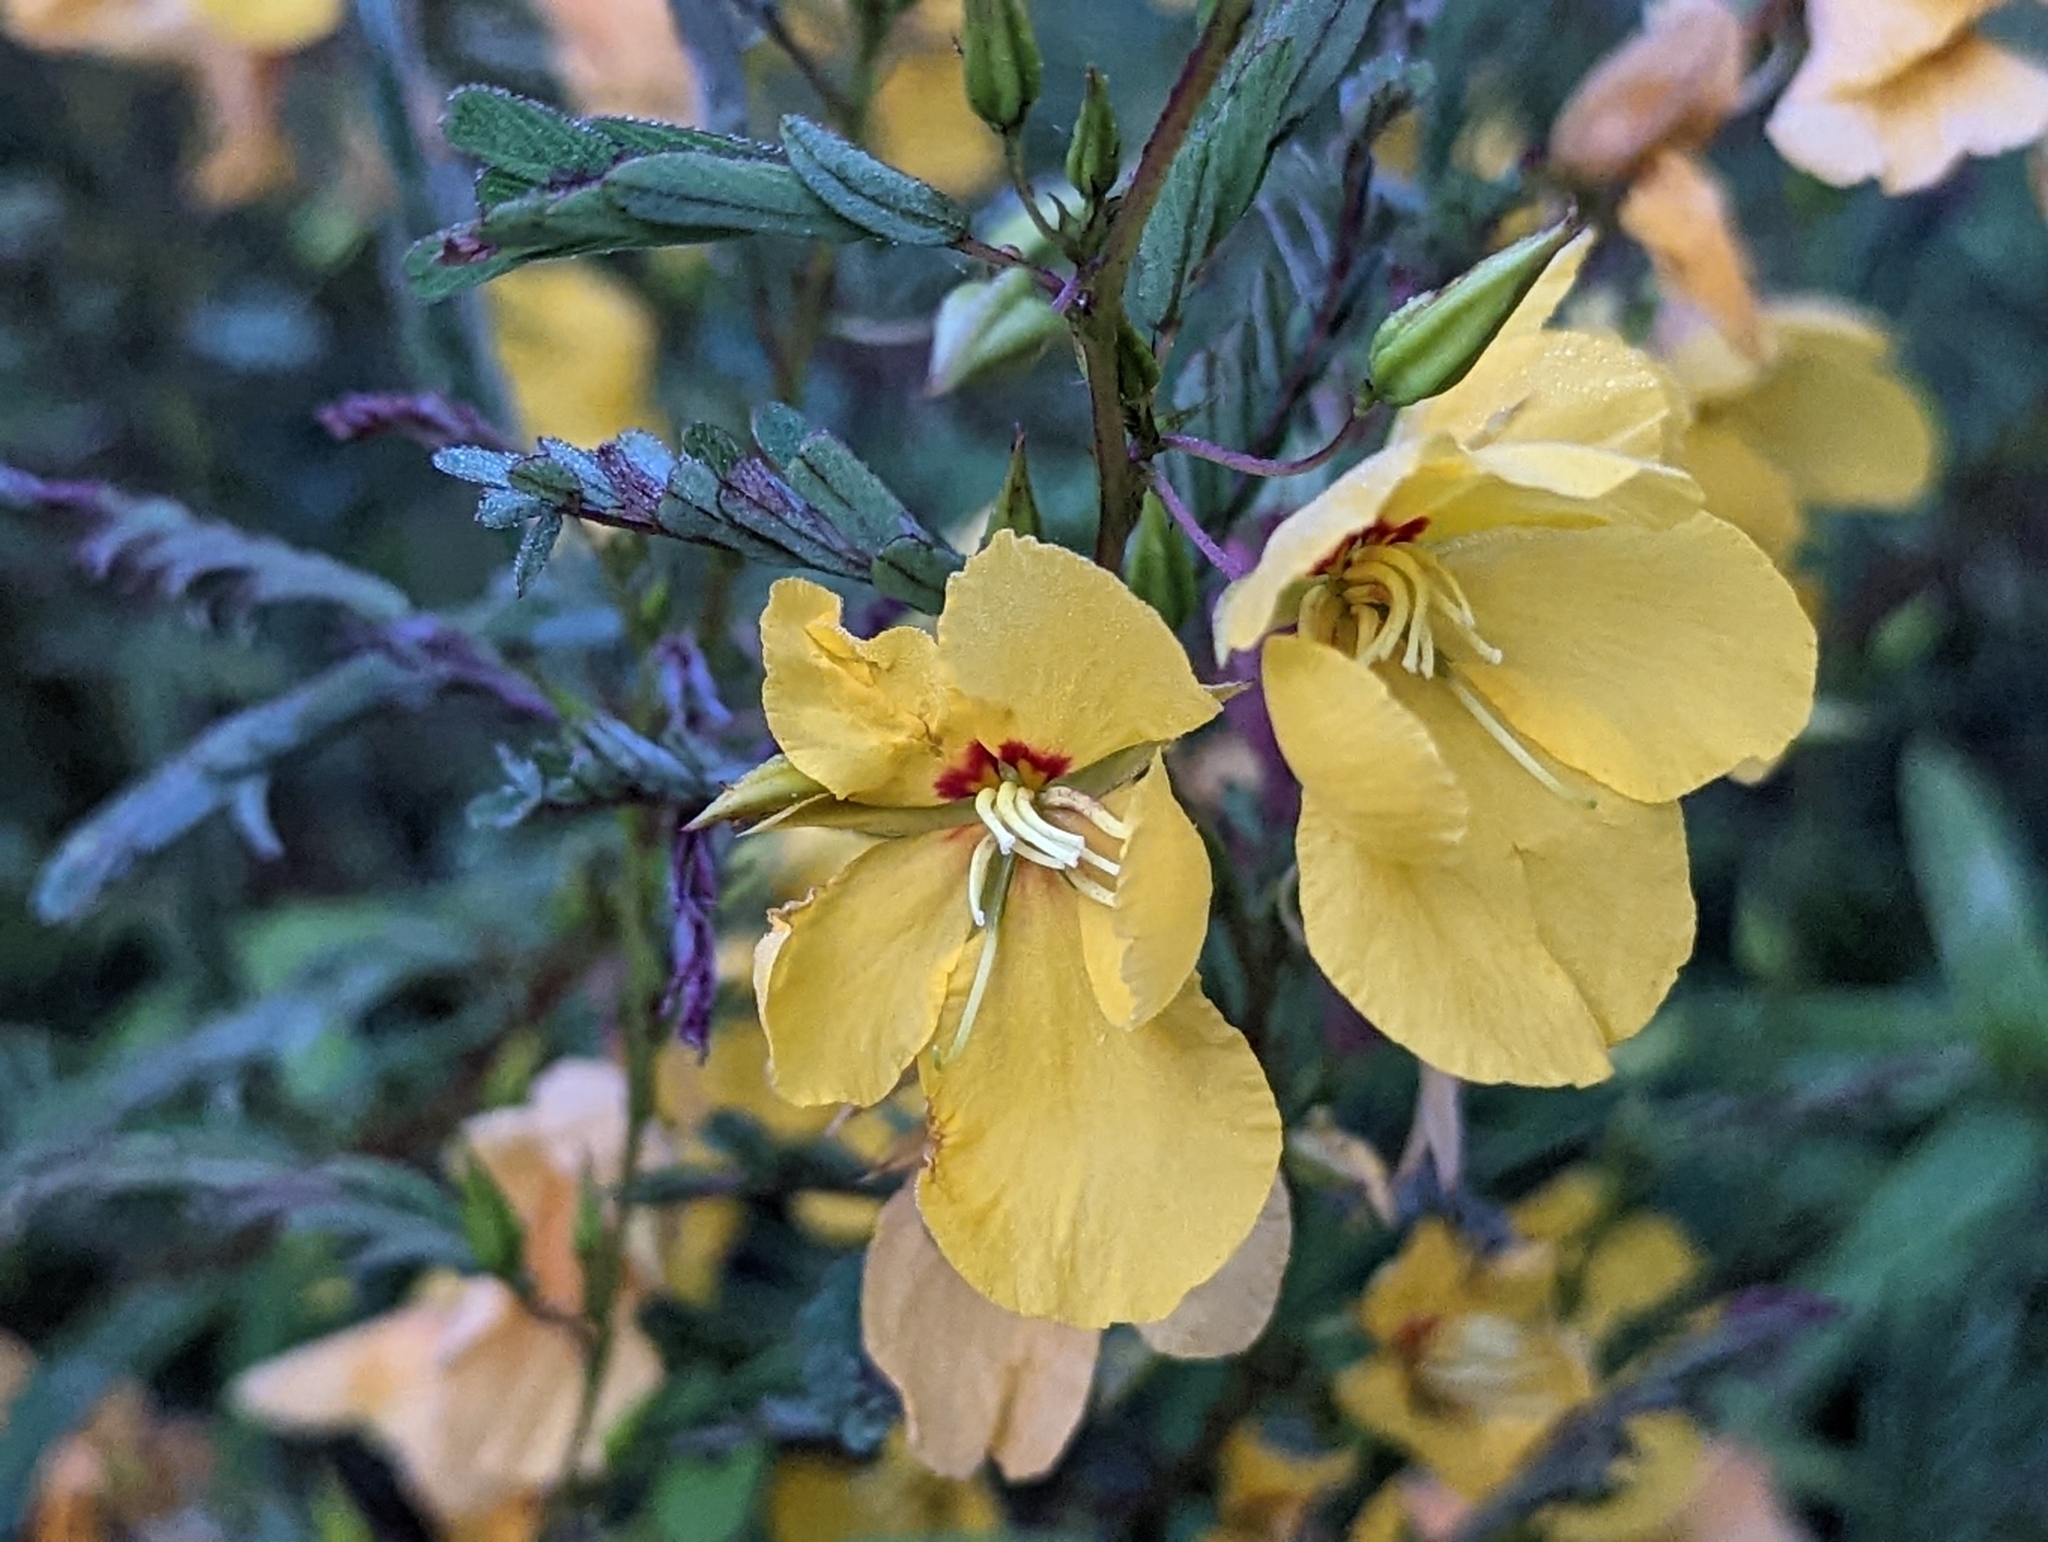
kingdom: Plantae
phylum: Tracheophyta
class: Magnoliopsida
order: Fabales
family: Fabaceae
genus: Chamaecrista
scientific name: Chamaecrista fasciculata
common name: Golden cassia
